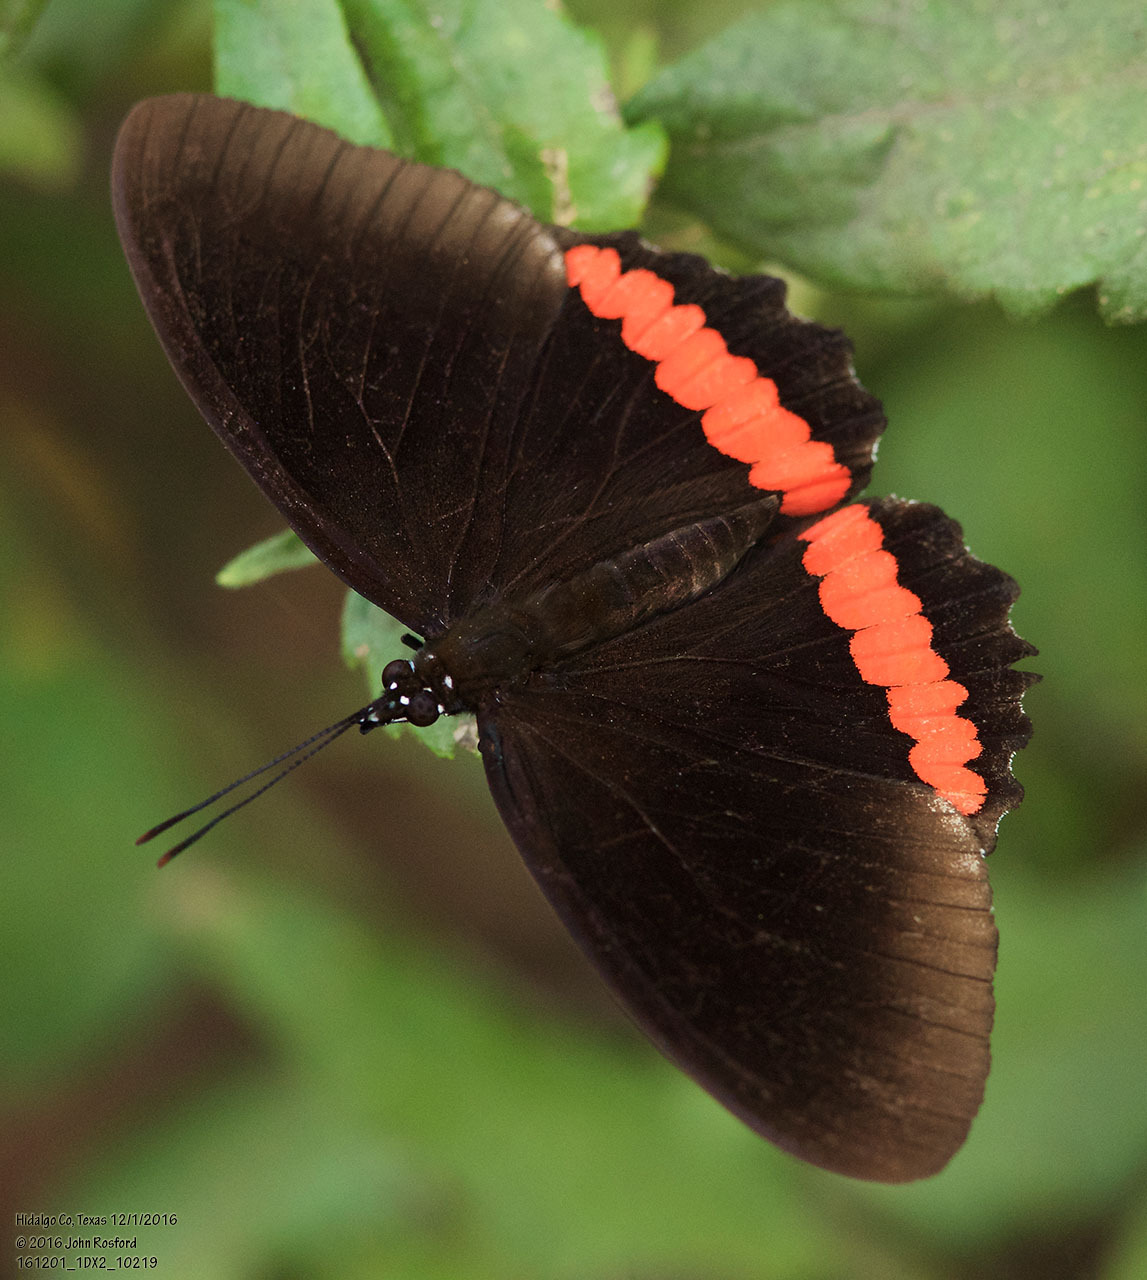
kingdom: Animalia
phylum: Arthropoda
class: Insecta
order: Lepidoptera
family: Nymphalidae
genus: Biblis
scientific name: Biblis aganisa
